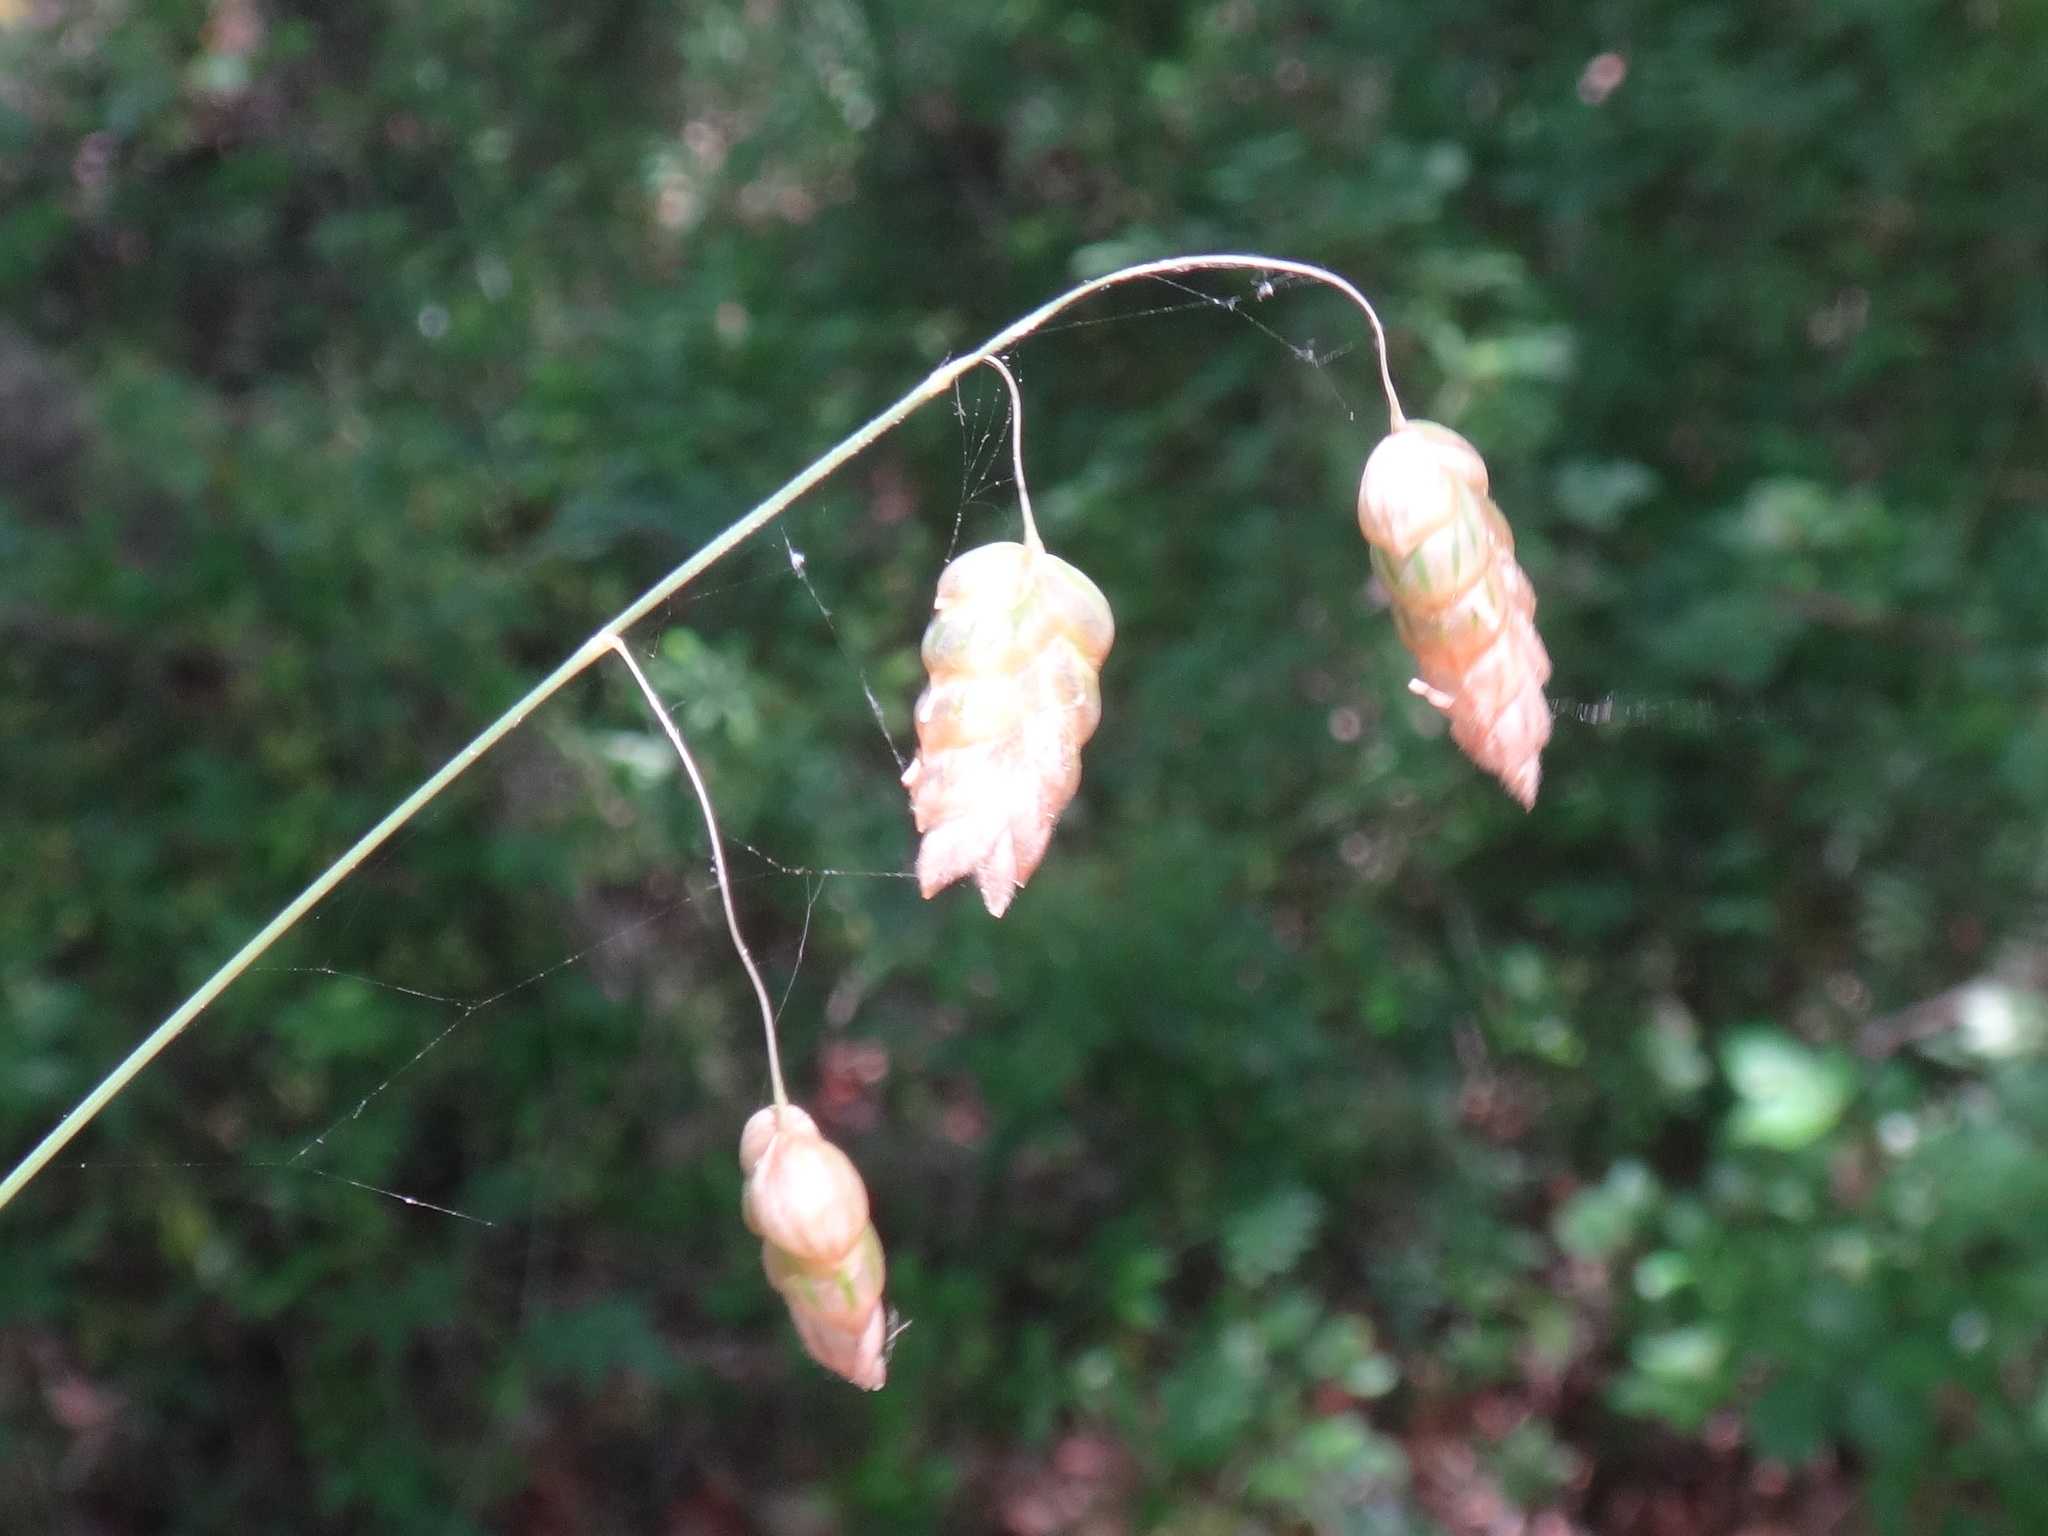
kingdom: Plantae
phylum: Tracheophyta
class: Liliopsida
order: Poales
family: Poaceae
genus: Briza
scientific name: Briza maxima
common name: Big quakinggrass
